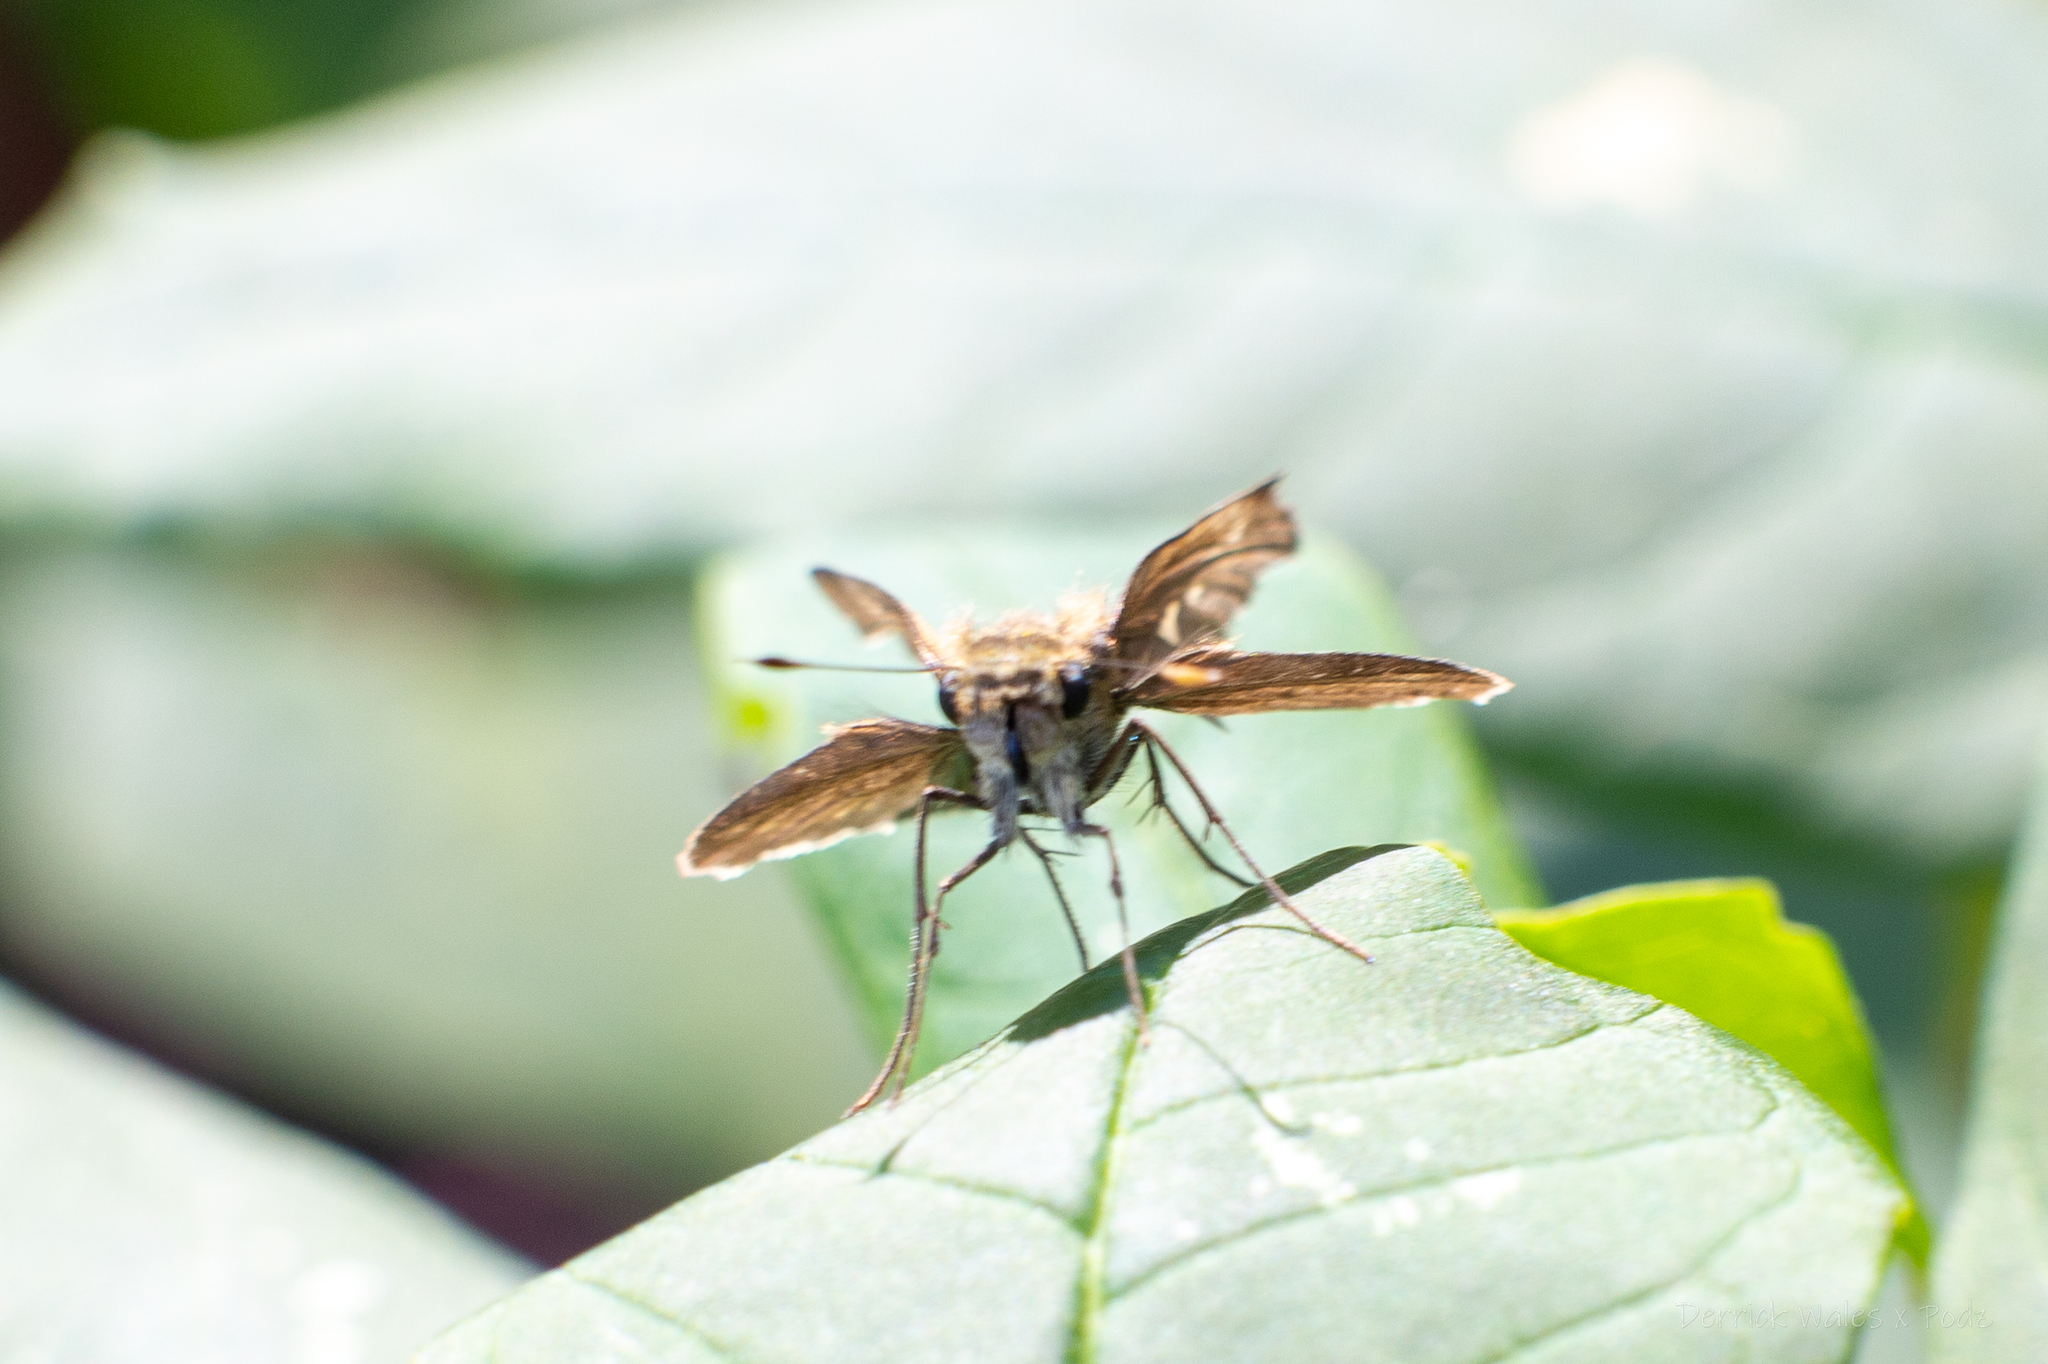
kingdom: Animalia
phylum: Arthropoda
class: Insecta
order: Lepidoptera
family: Hesperiidae
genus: Panoquina
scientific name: Panoquina ocola
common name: Ocola skipper
